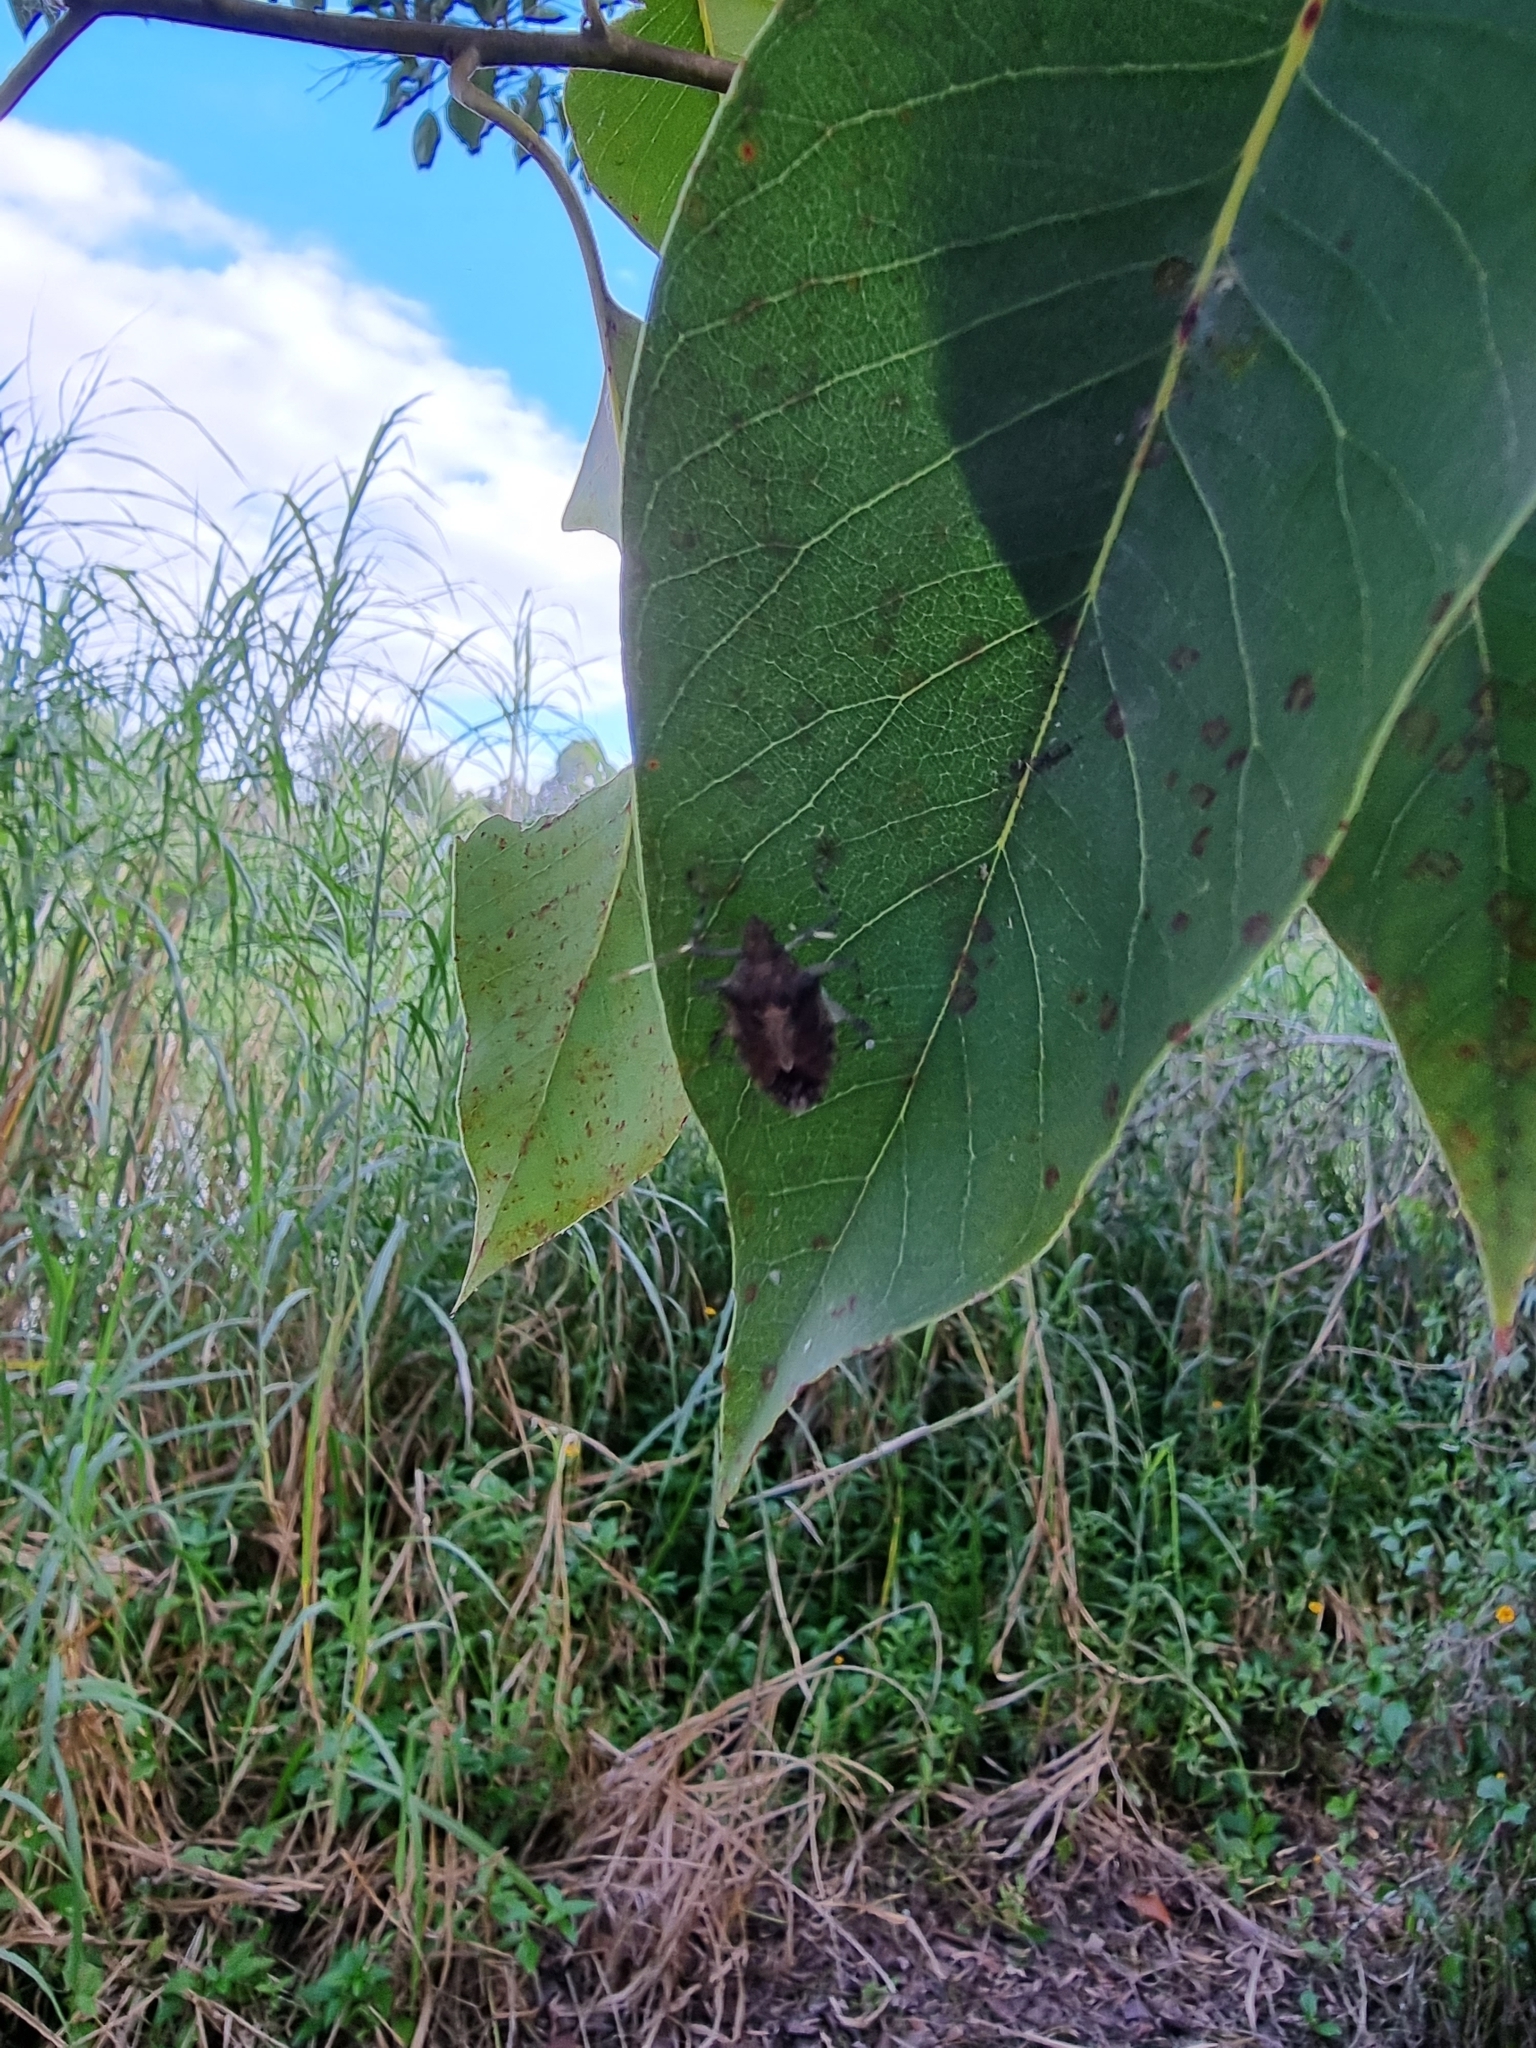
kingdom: Animalia
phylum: Arthropoda
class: Insecta
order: Hemiptera
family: Pentatomidae
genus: Bromocoris
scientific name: Bromocoris
